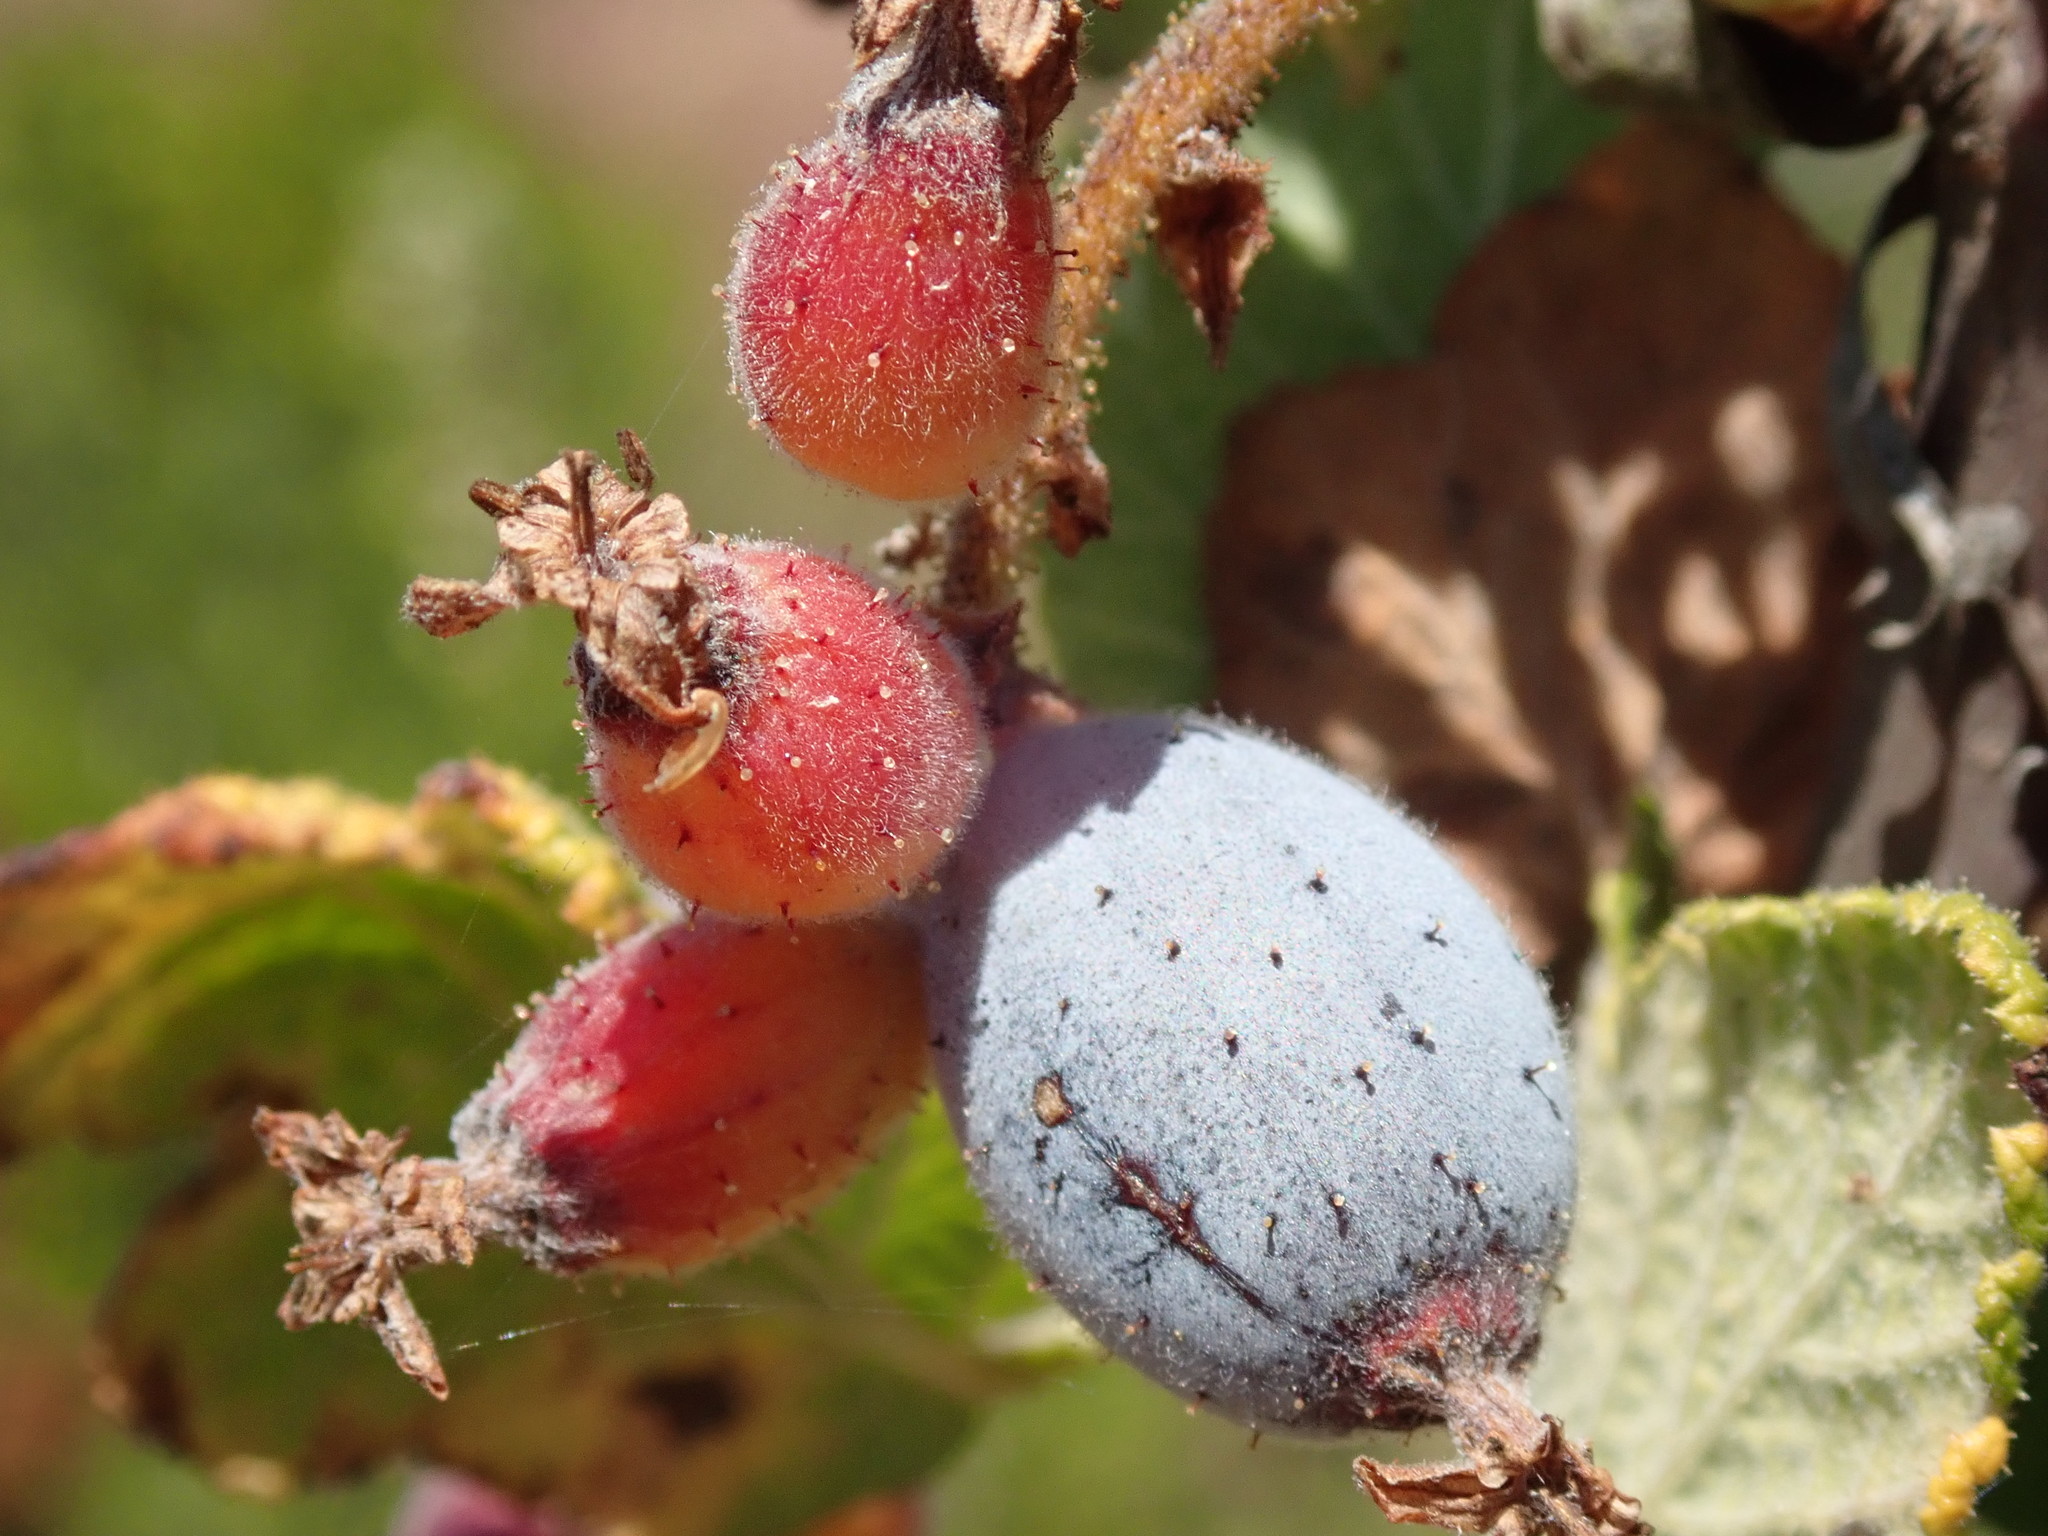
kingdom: Plantae
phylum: Tracheophyta
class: Magnoliopsida
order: Saxifragales
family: Grossulariaceae
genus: Ribes
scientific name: Ribes malvaceum
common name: Chaparral currant
